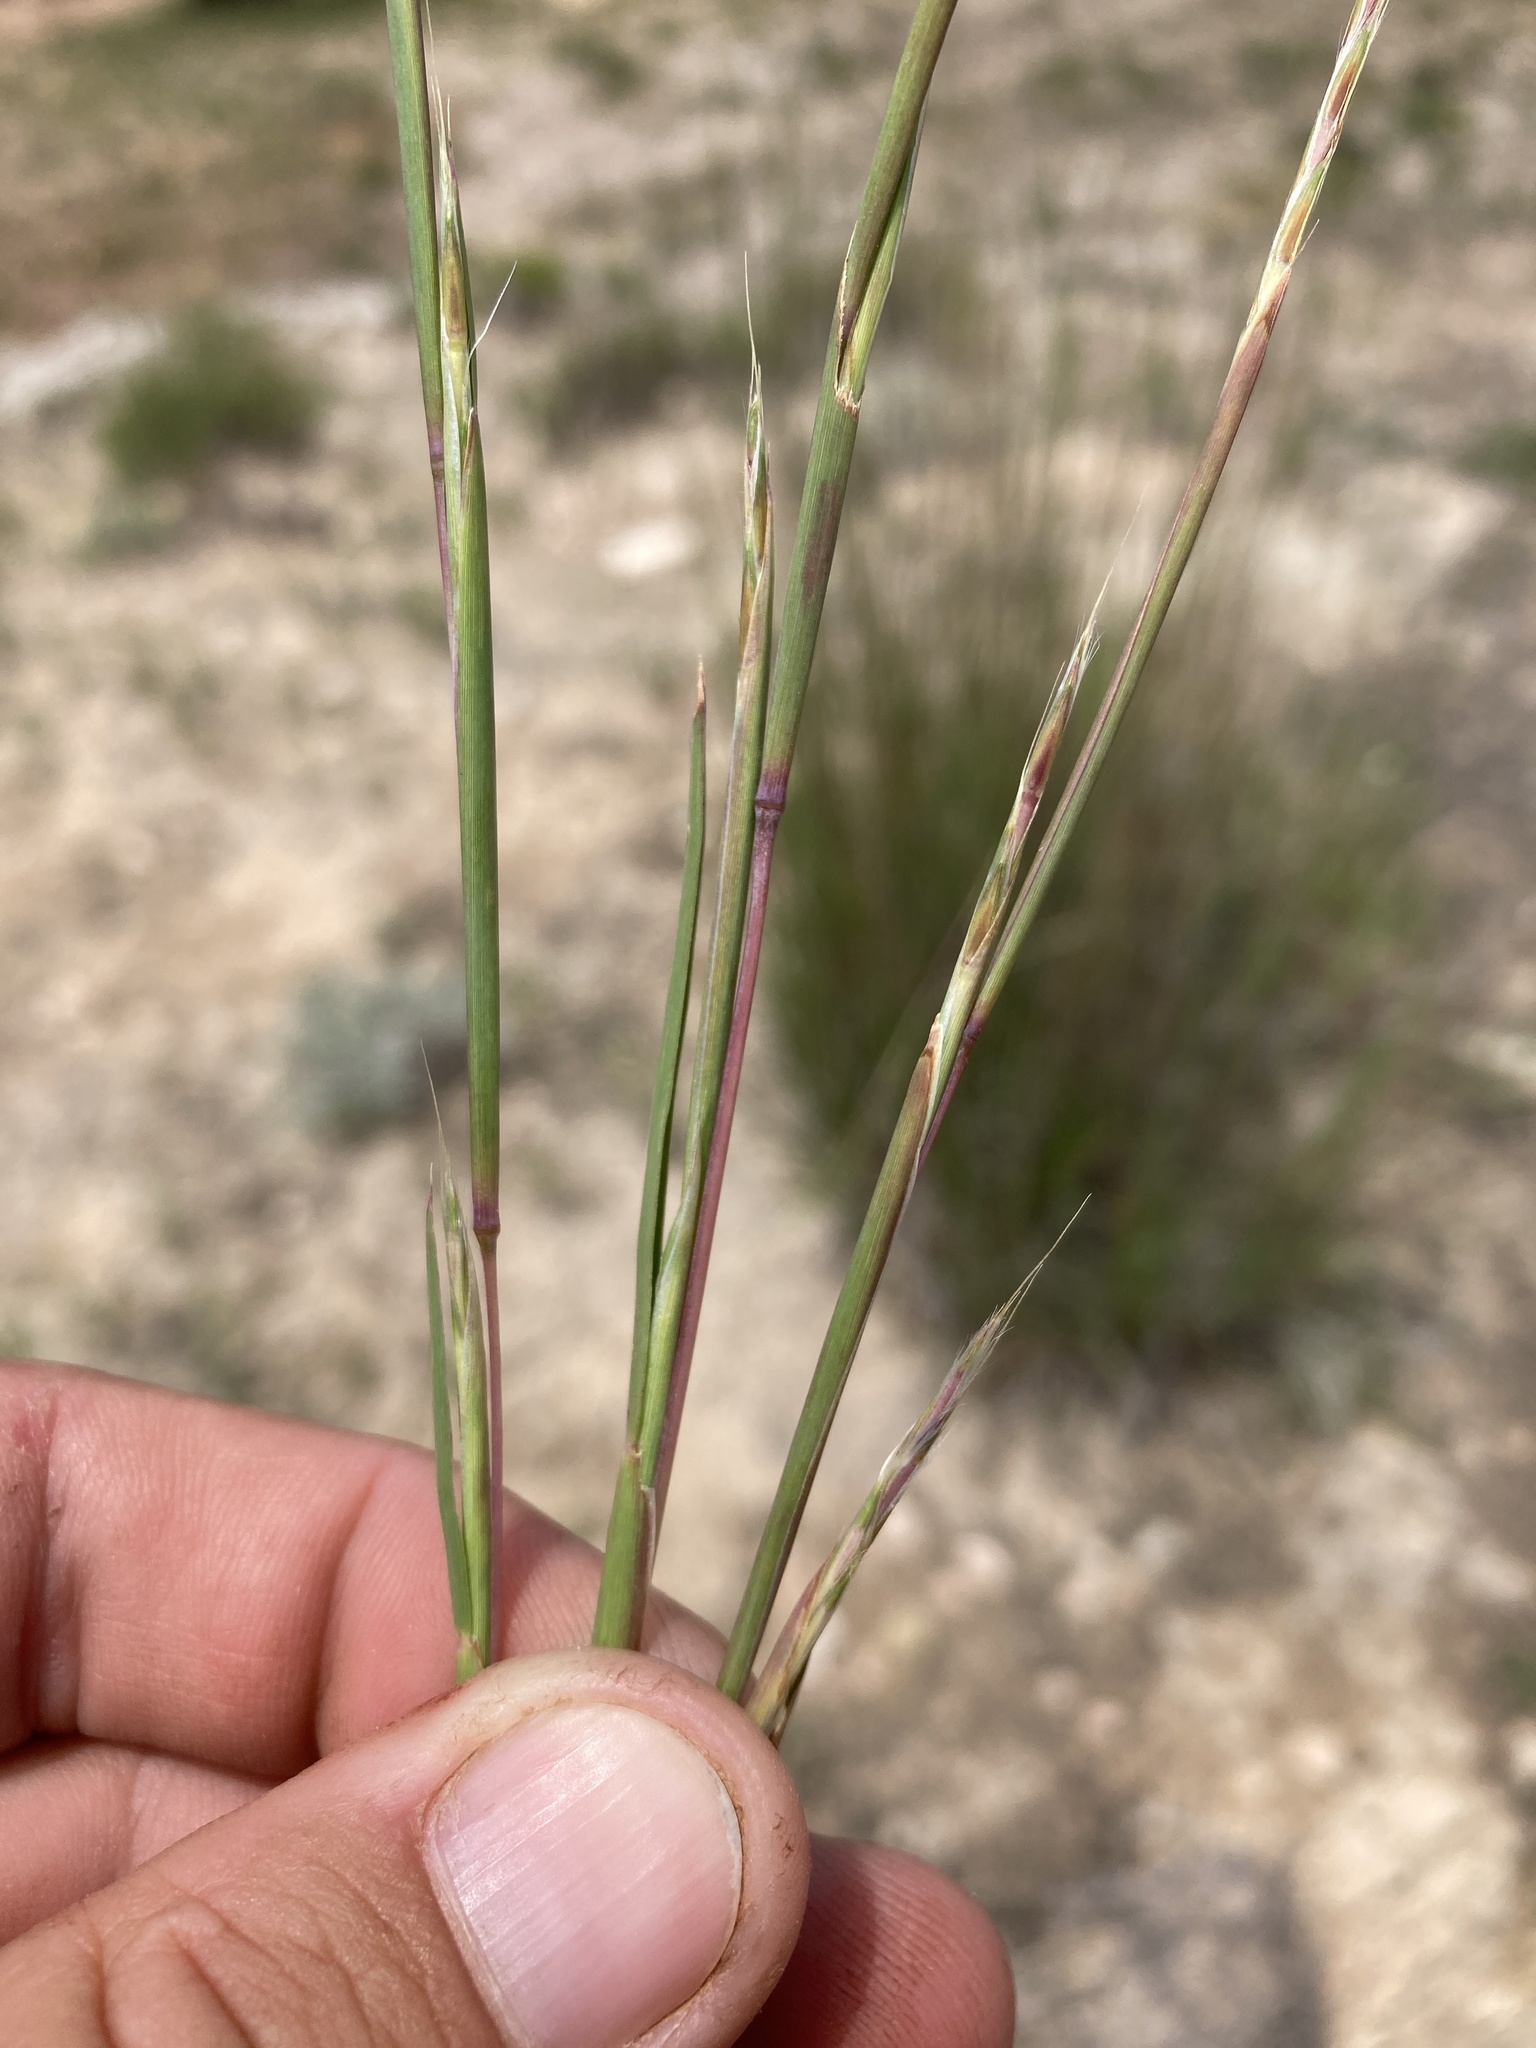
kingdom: Plantae
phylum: Tracheophyta
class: Liliopsida
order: Poales
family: Poaceae
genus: Schizachyrium
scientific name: Schizachyrium scoparium
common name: Little bluestem
